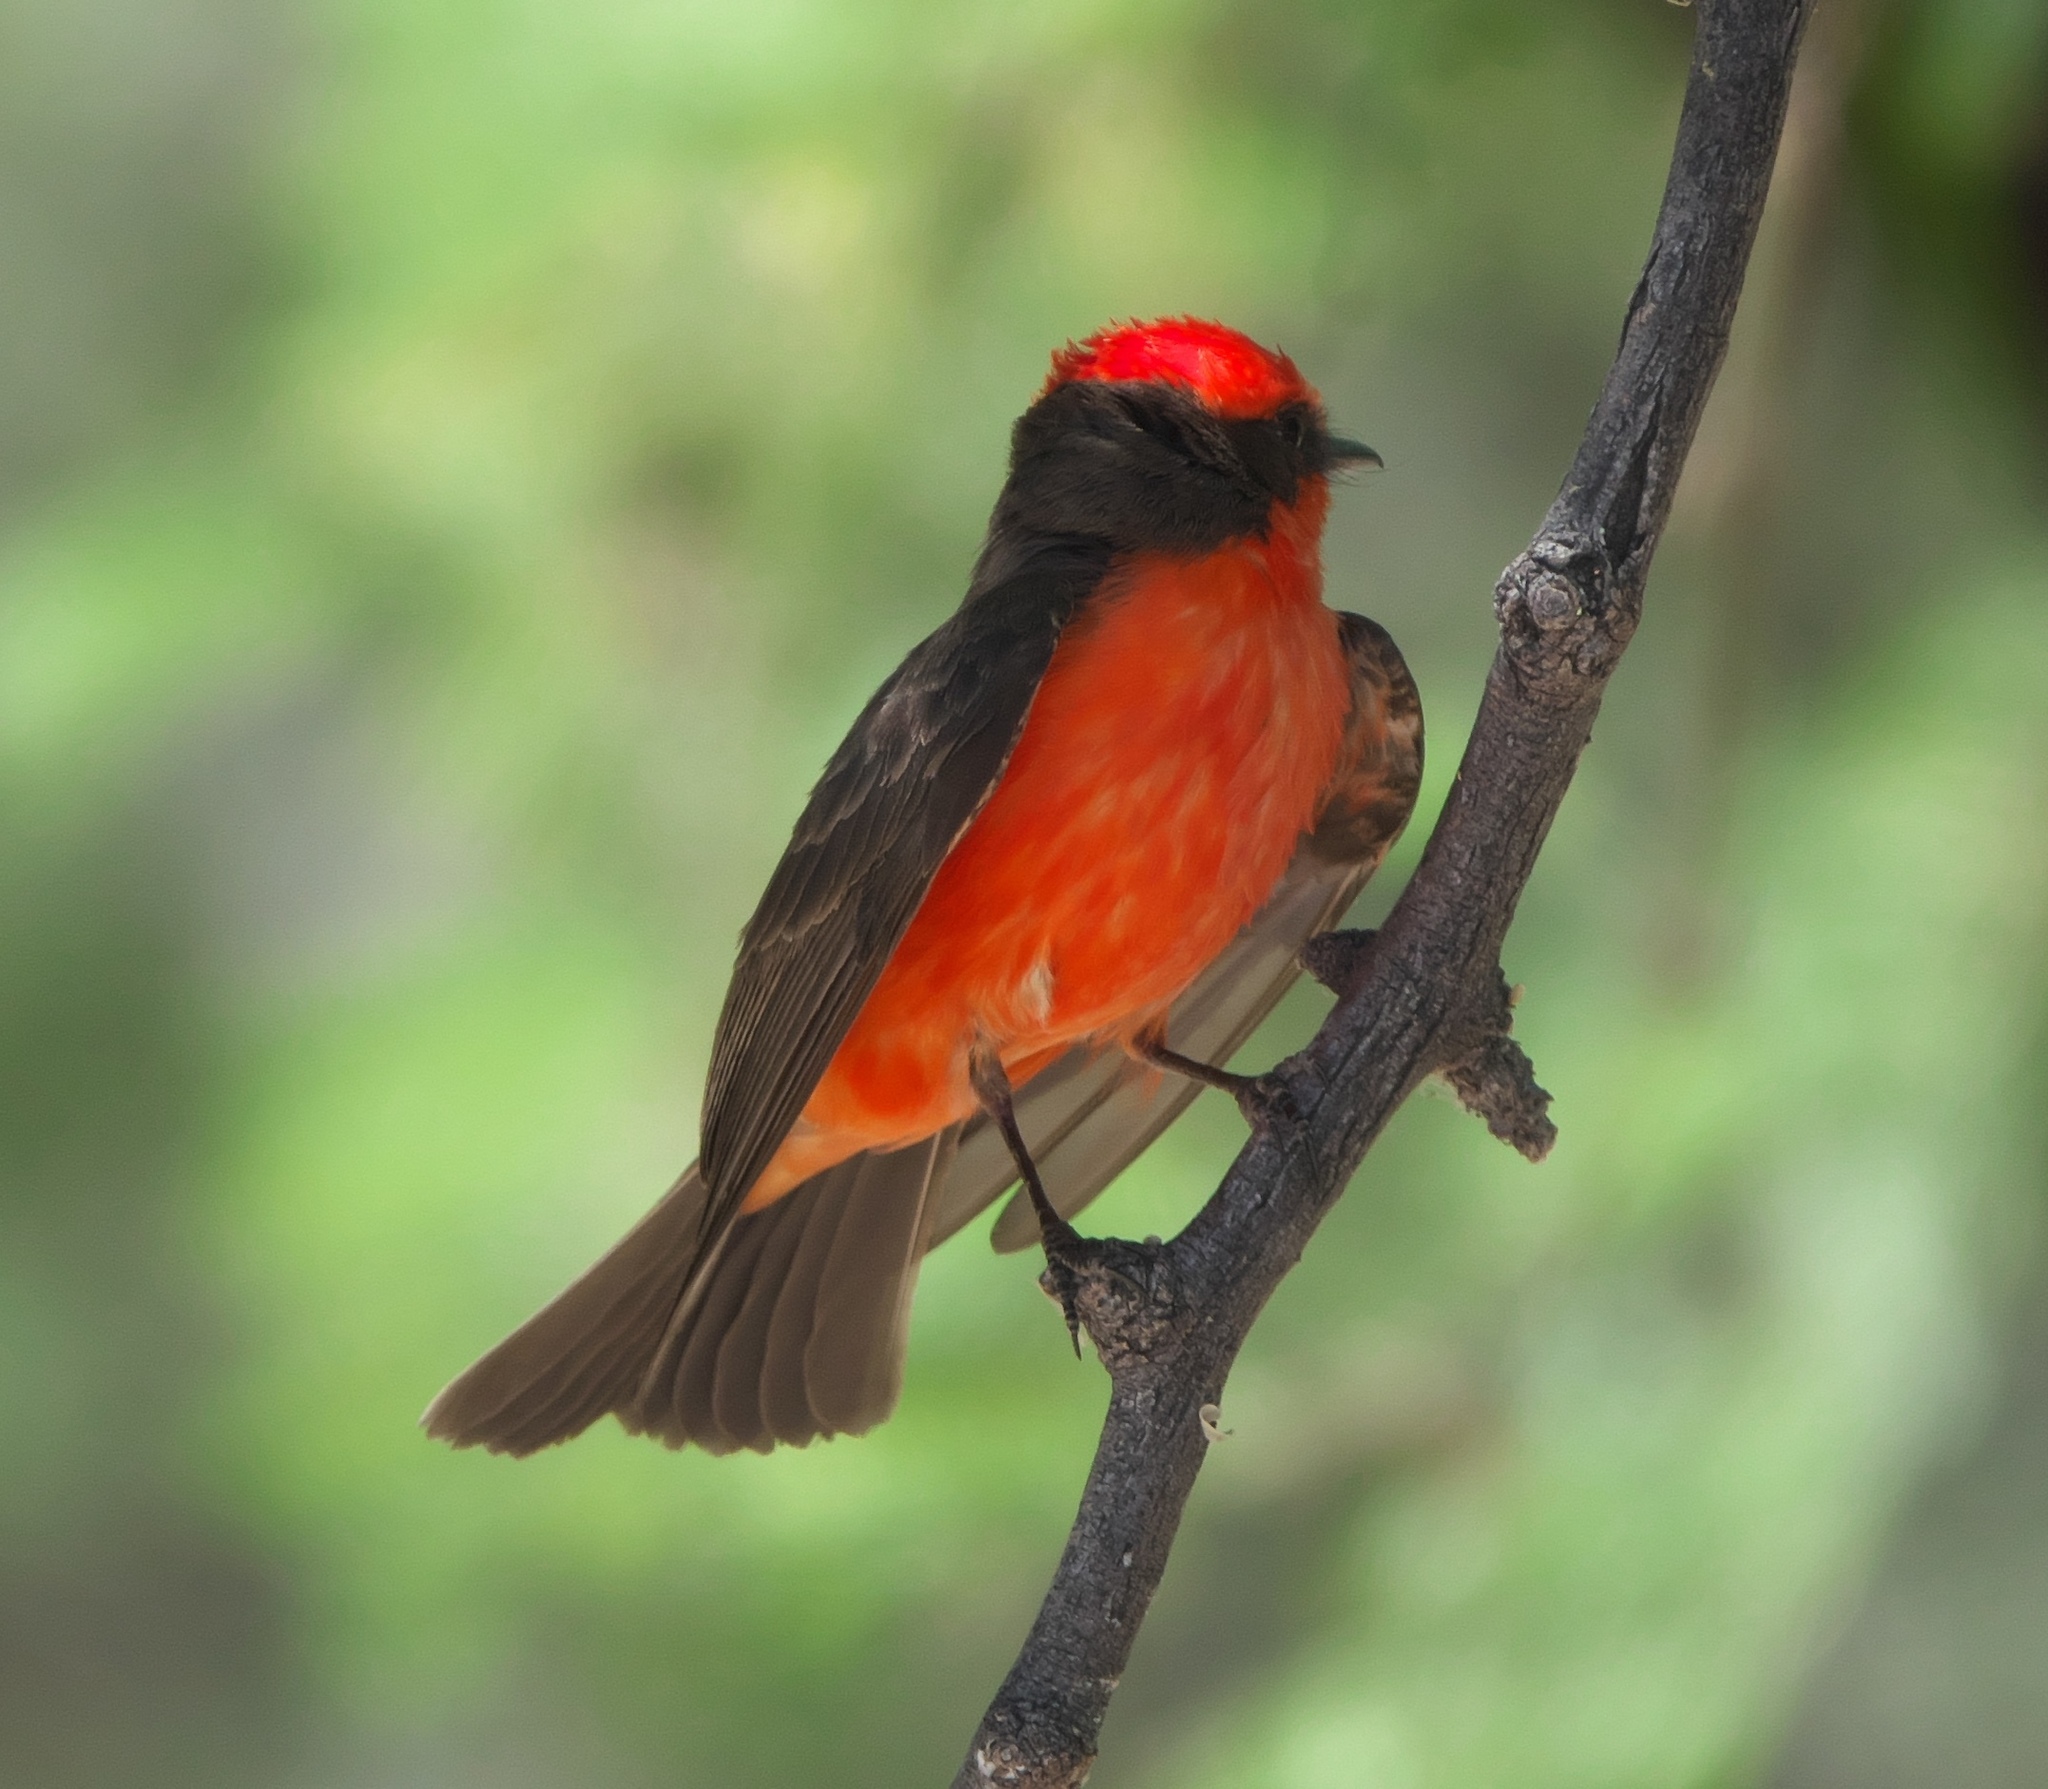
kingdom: Animalia
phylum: Chordata
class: Aves
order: Passeriformes
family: Tyrannidae
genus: Pyrocephalus
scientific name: Pyrocephalus rubinus
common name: Vermilion flycatcher
